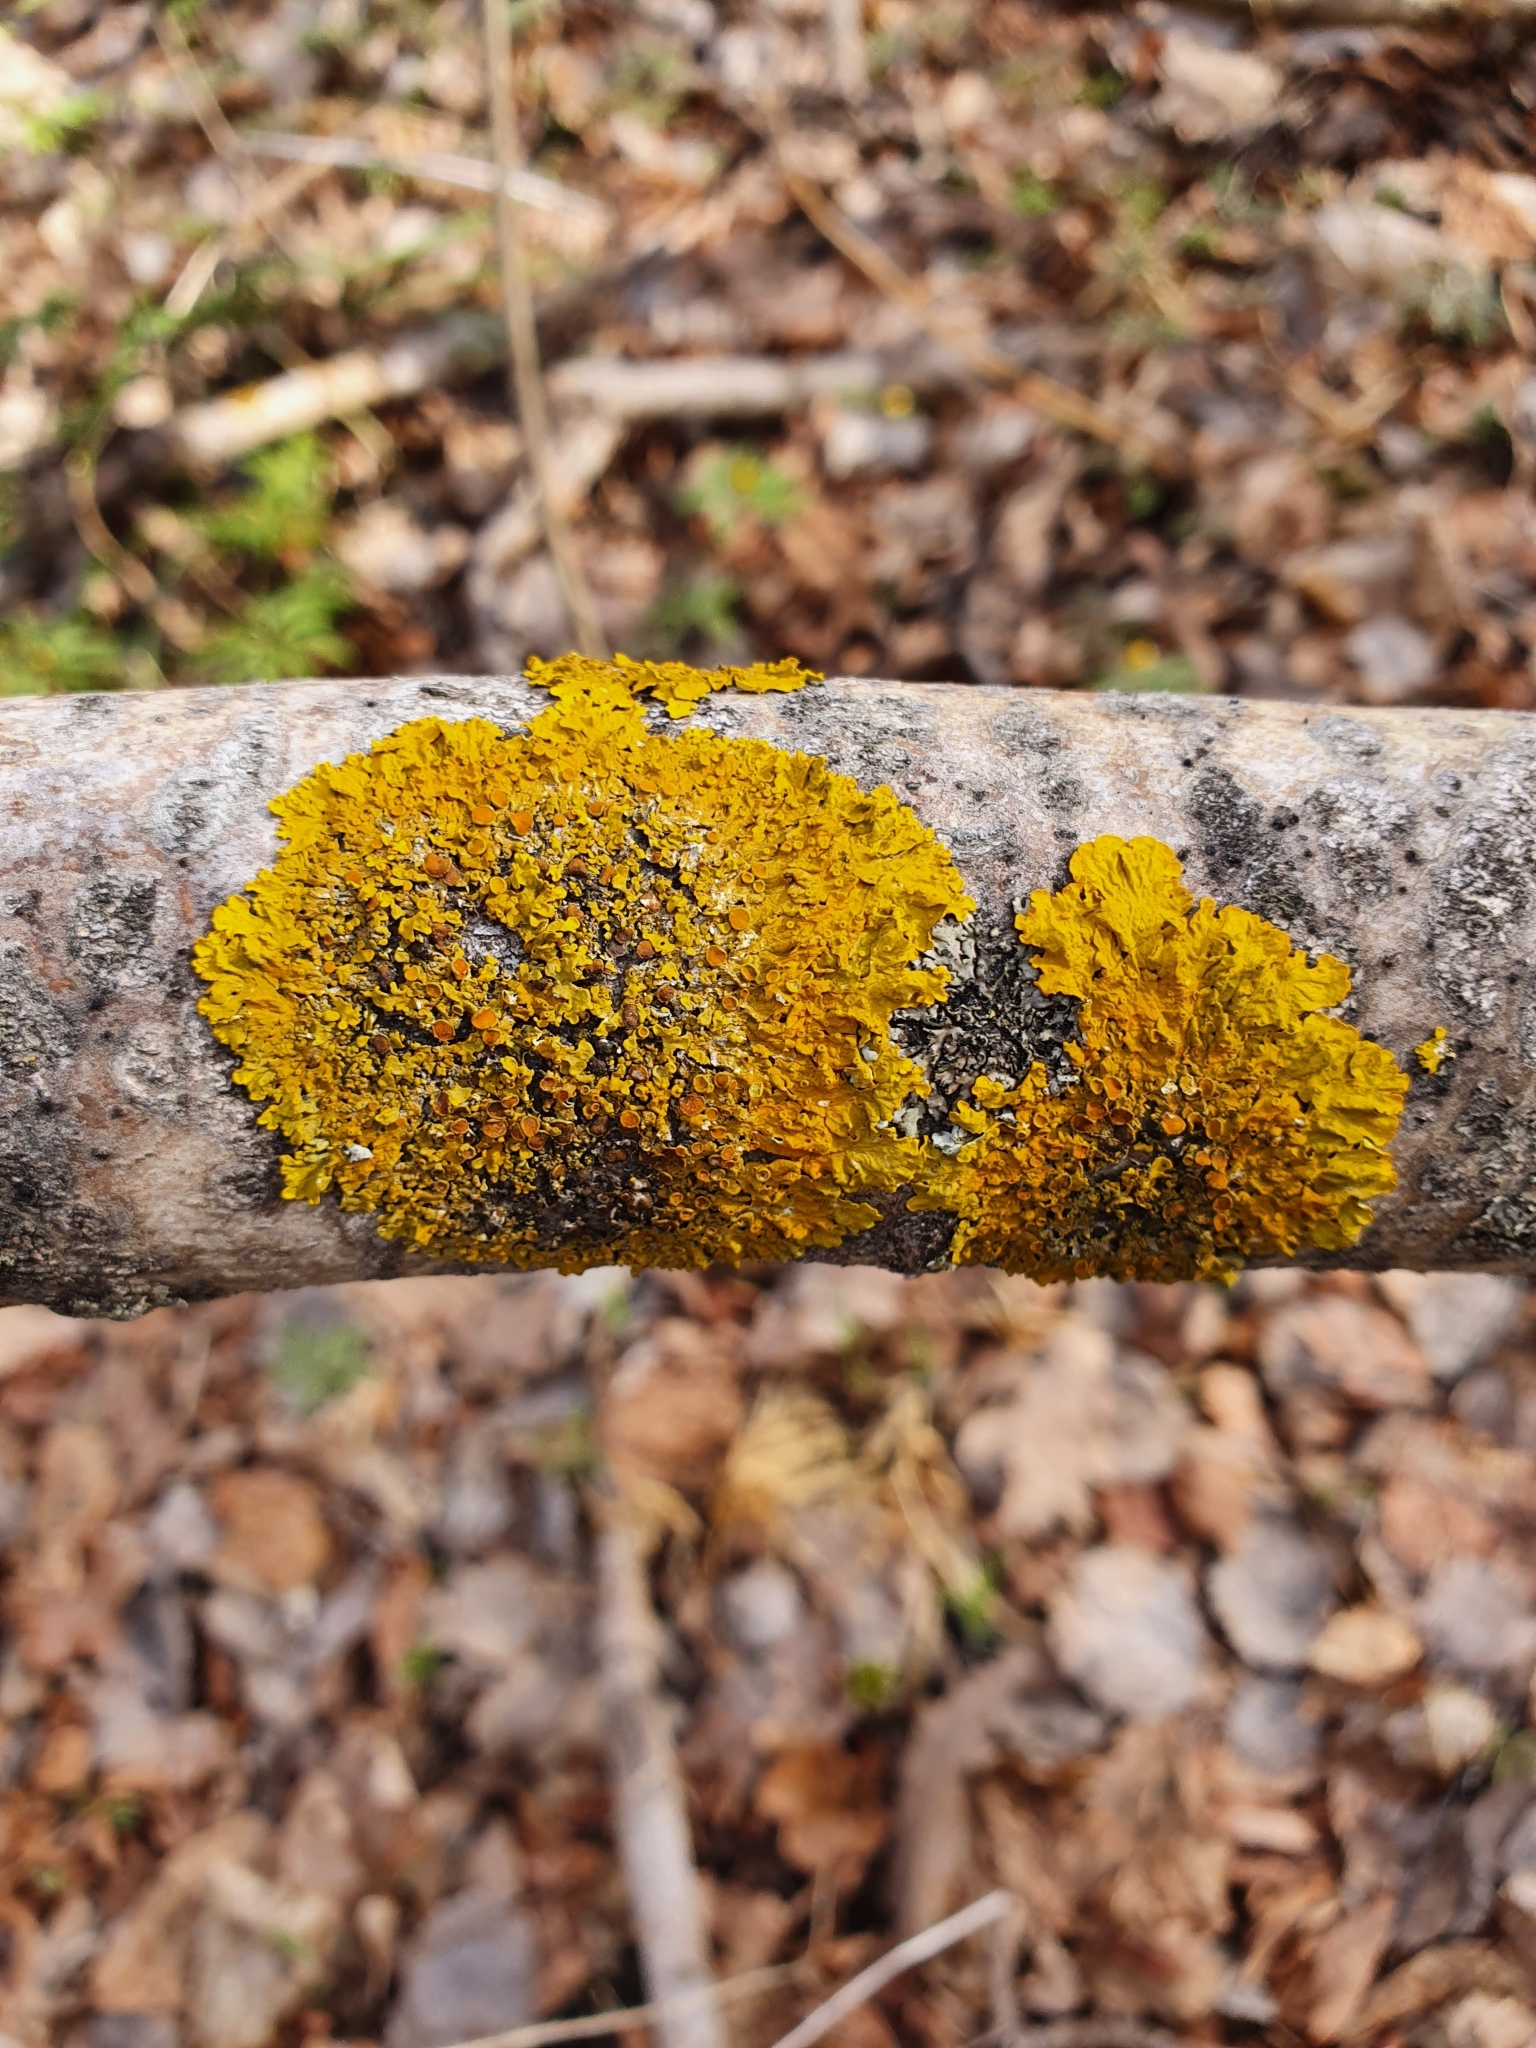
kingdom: Fungi
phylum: Ascomycota
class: Lecanoromycetes
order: Teloschistales
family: Teloschistaceae
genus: Xanthoria
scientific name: Xanthoria parietina
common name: Common orange lichen
